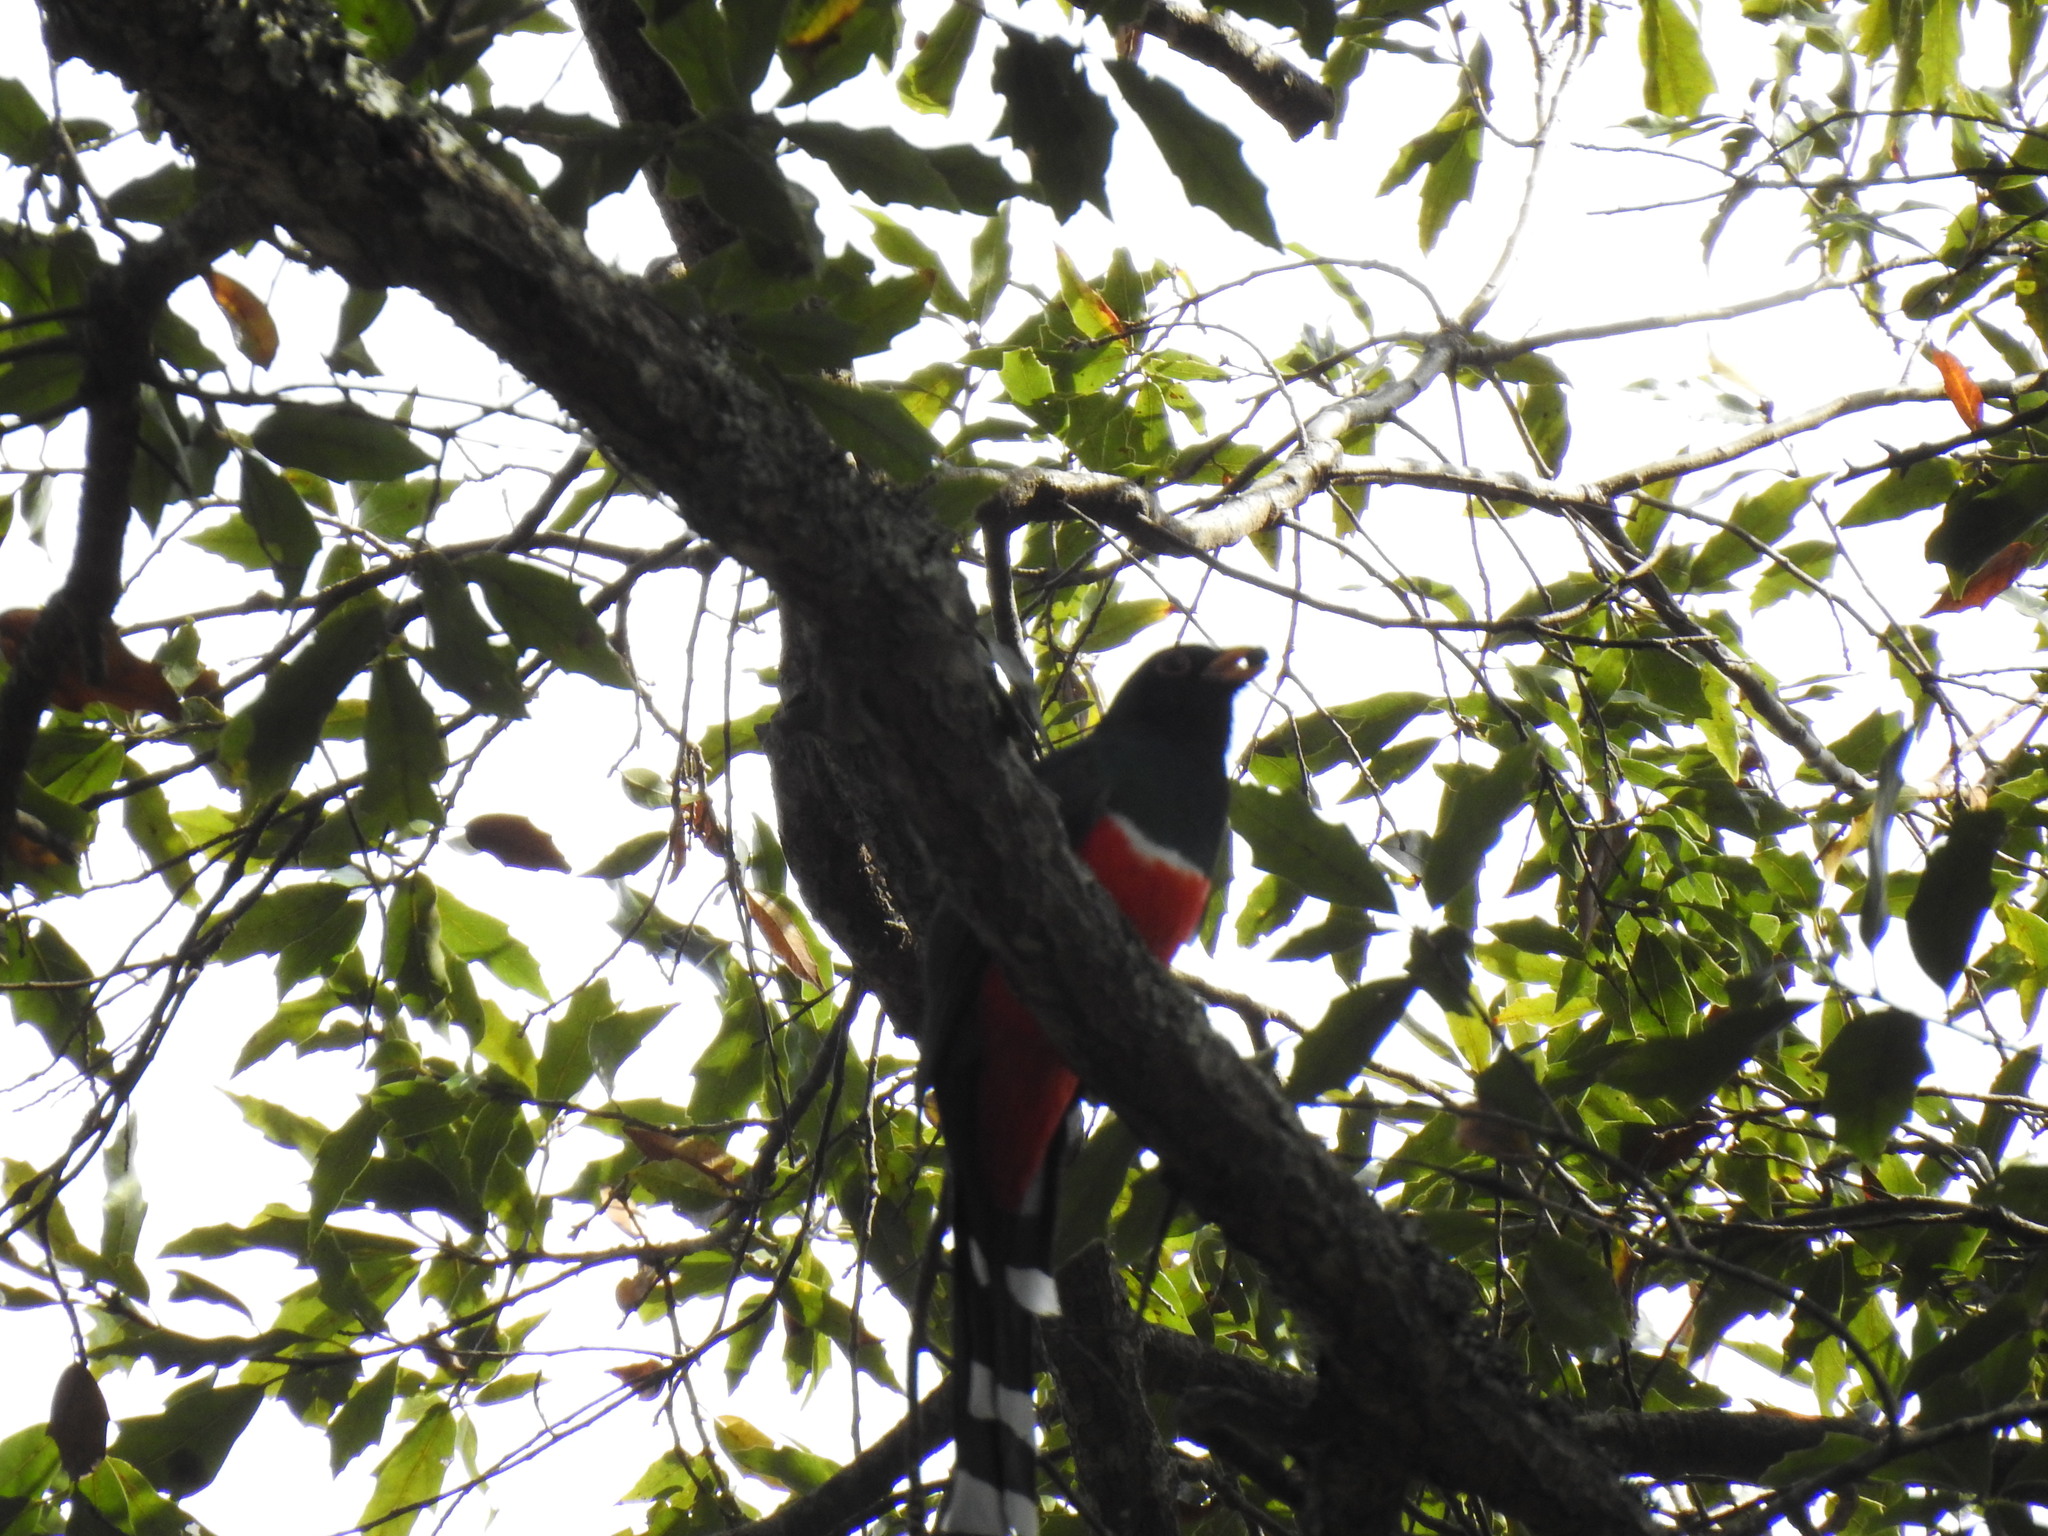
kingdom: Animalia
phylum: Chordata
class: Aves
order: Trogoniformes
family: Trogonidae
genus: Trogon
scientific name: Trogon mexicanus
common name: Mountain trogon
